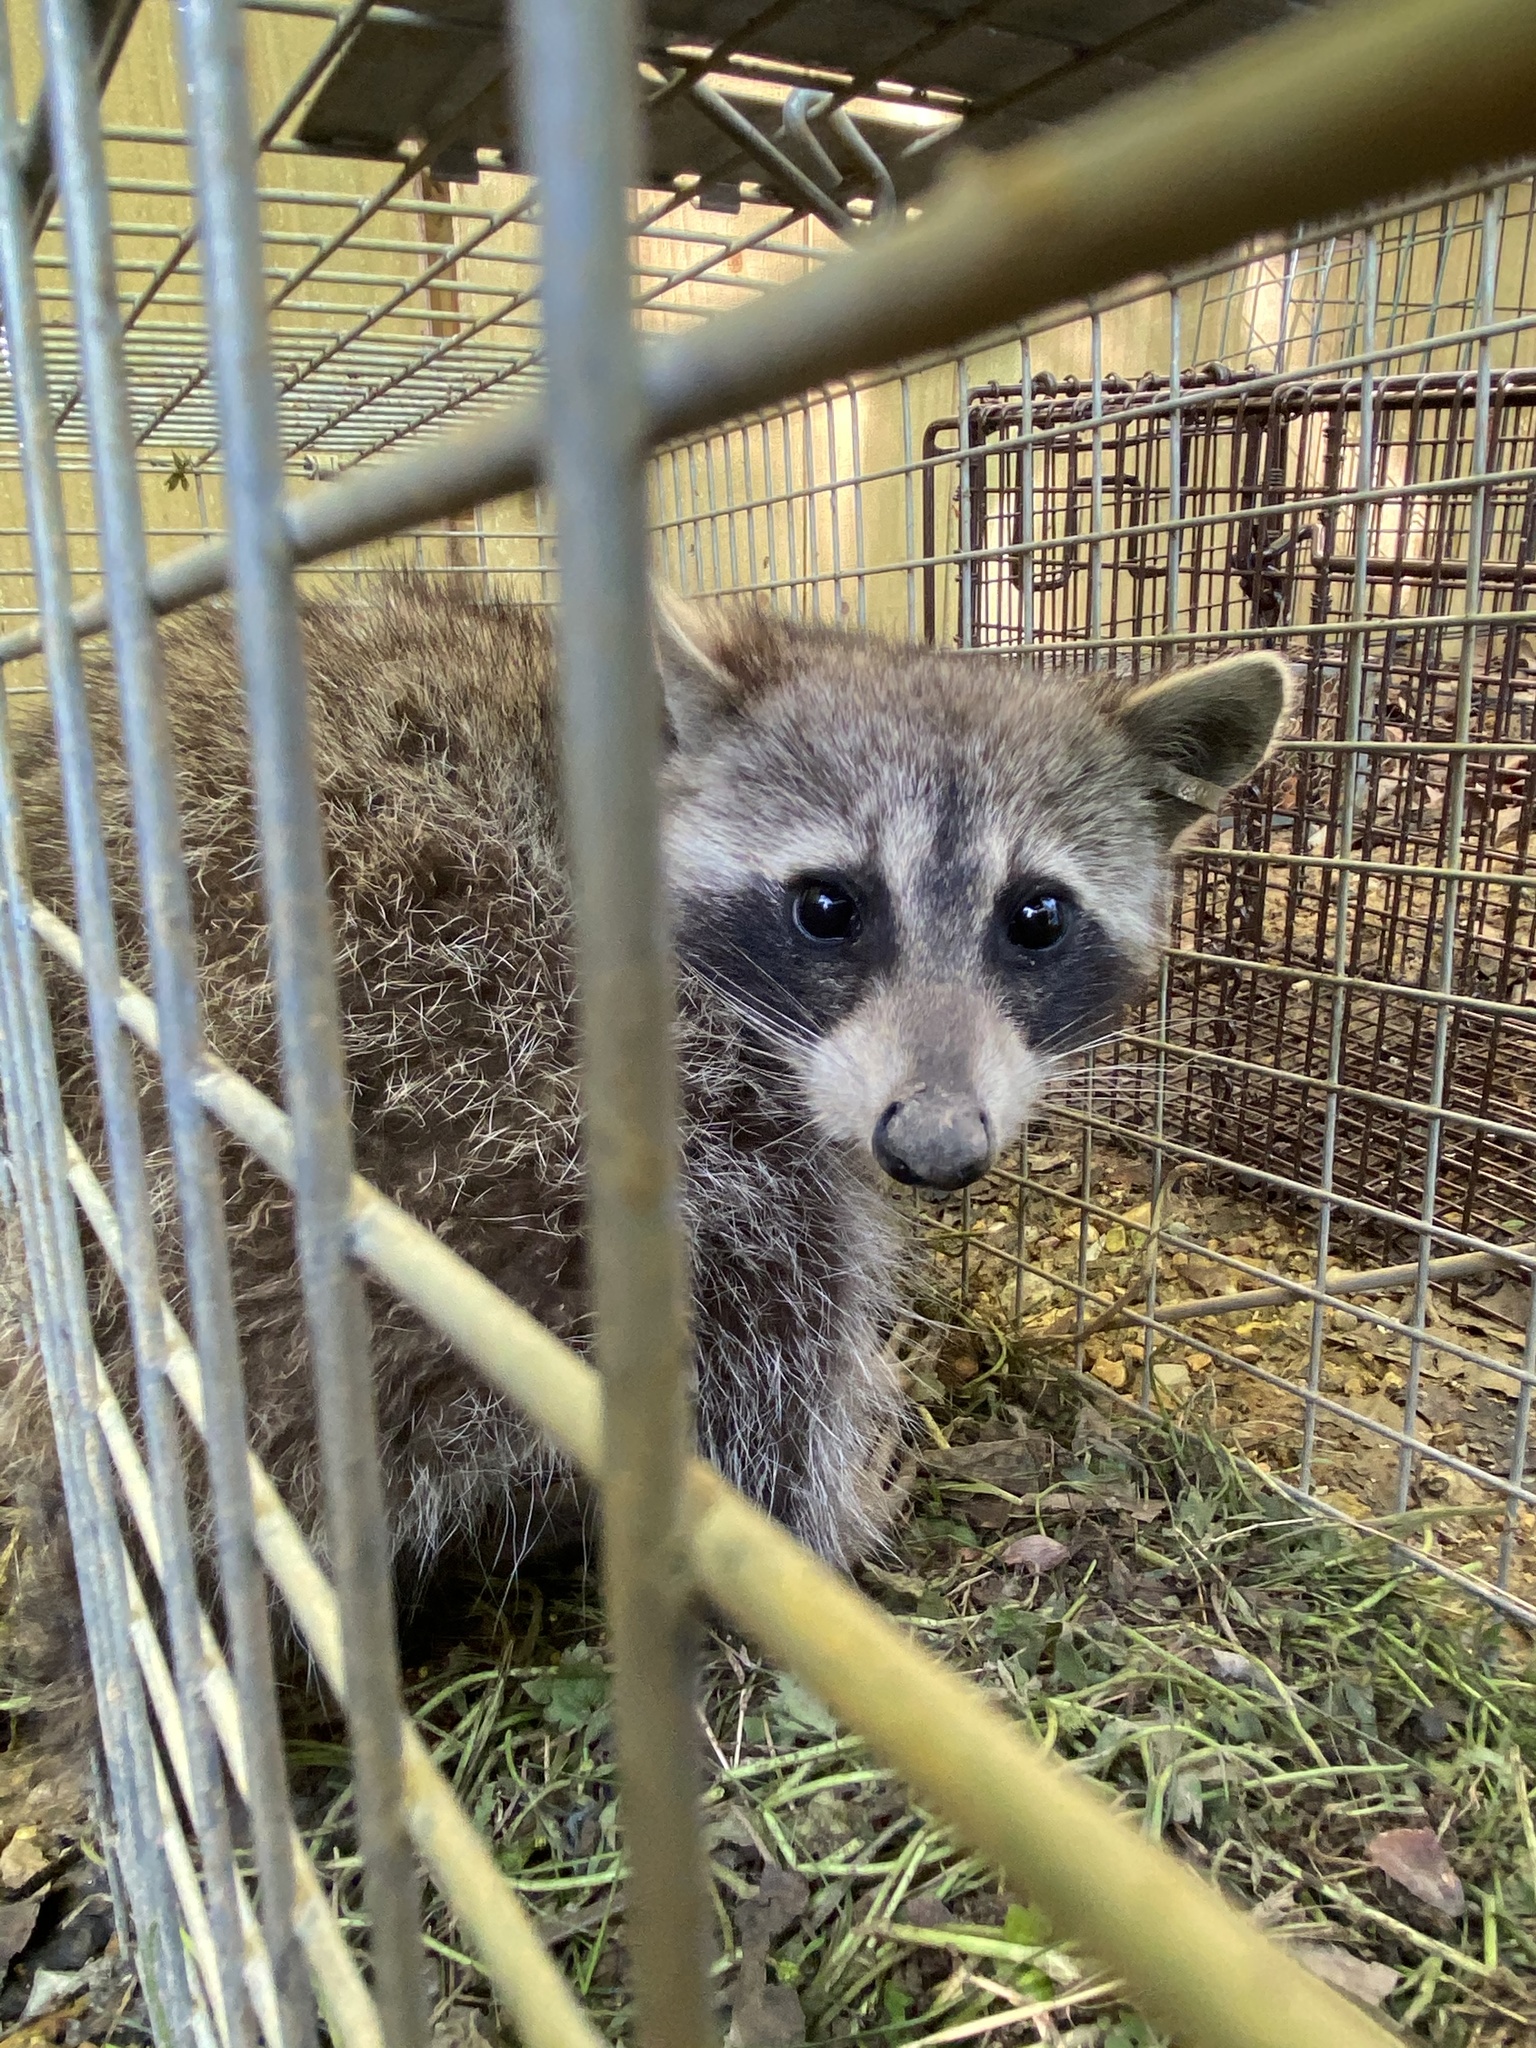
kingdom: Animalia
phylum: Chordata
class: Mammalia
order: Carnivora
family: Procyonidae
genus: Procyon
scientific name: Procyon lotor
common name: Raccoon
